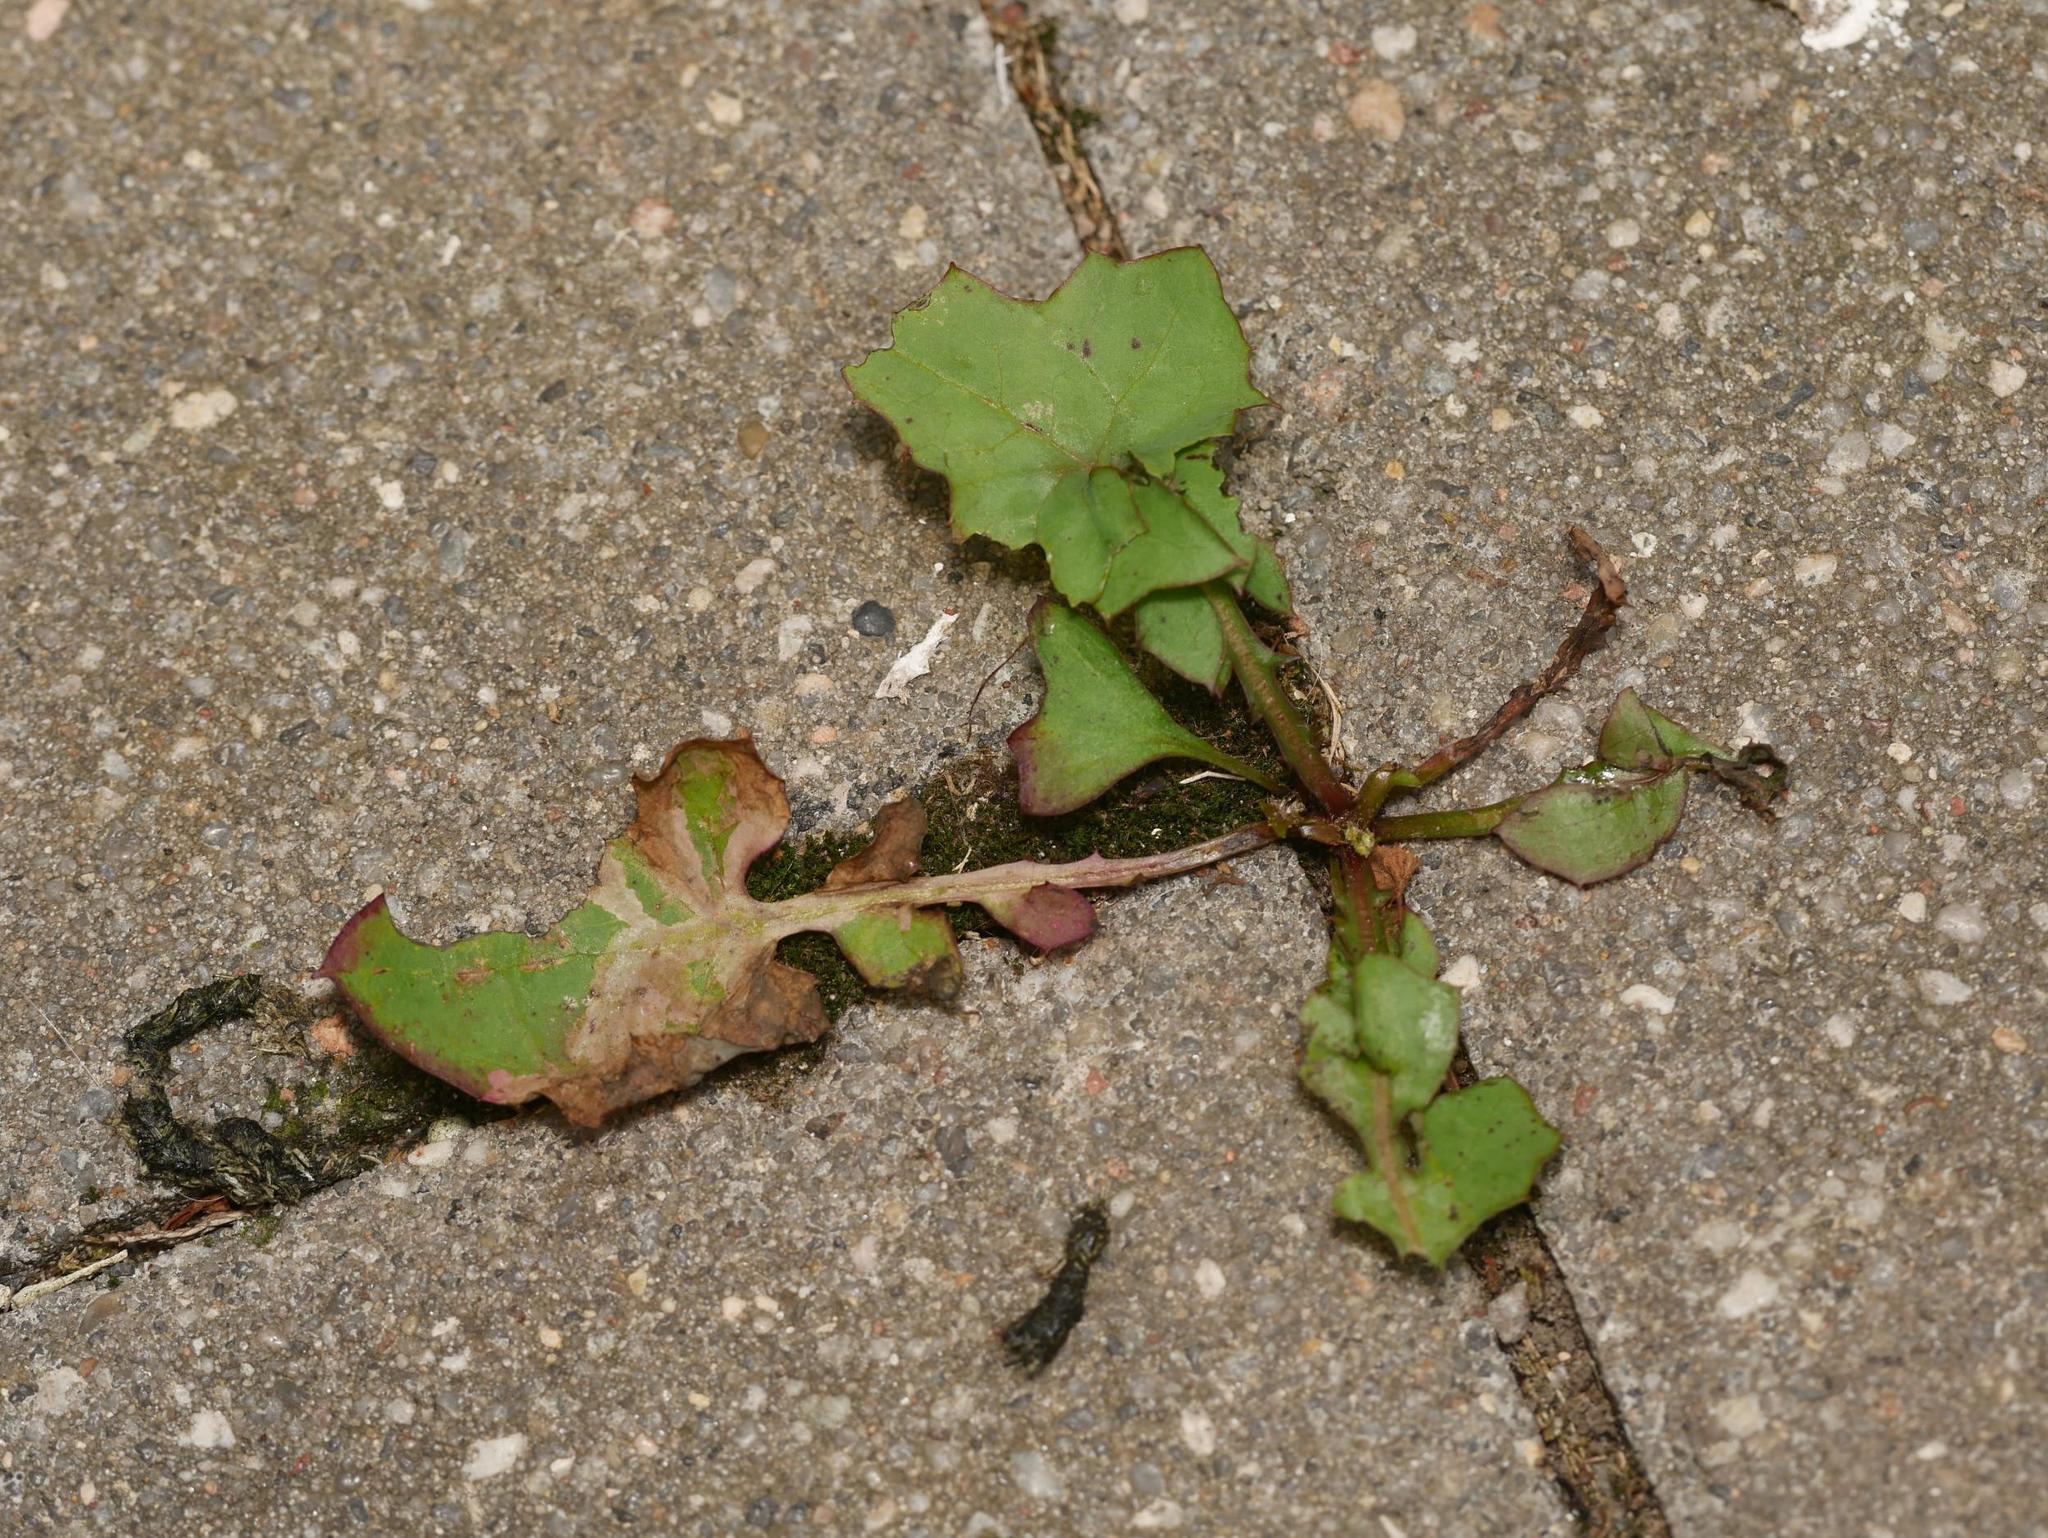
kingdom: Plantae
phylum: Tracheophyta
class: Magnoliopsida
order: Asterales
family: Asteraceae
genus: Mycelis
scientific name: Mycelis muralis
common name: Wall lettuce
